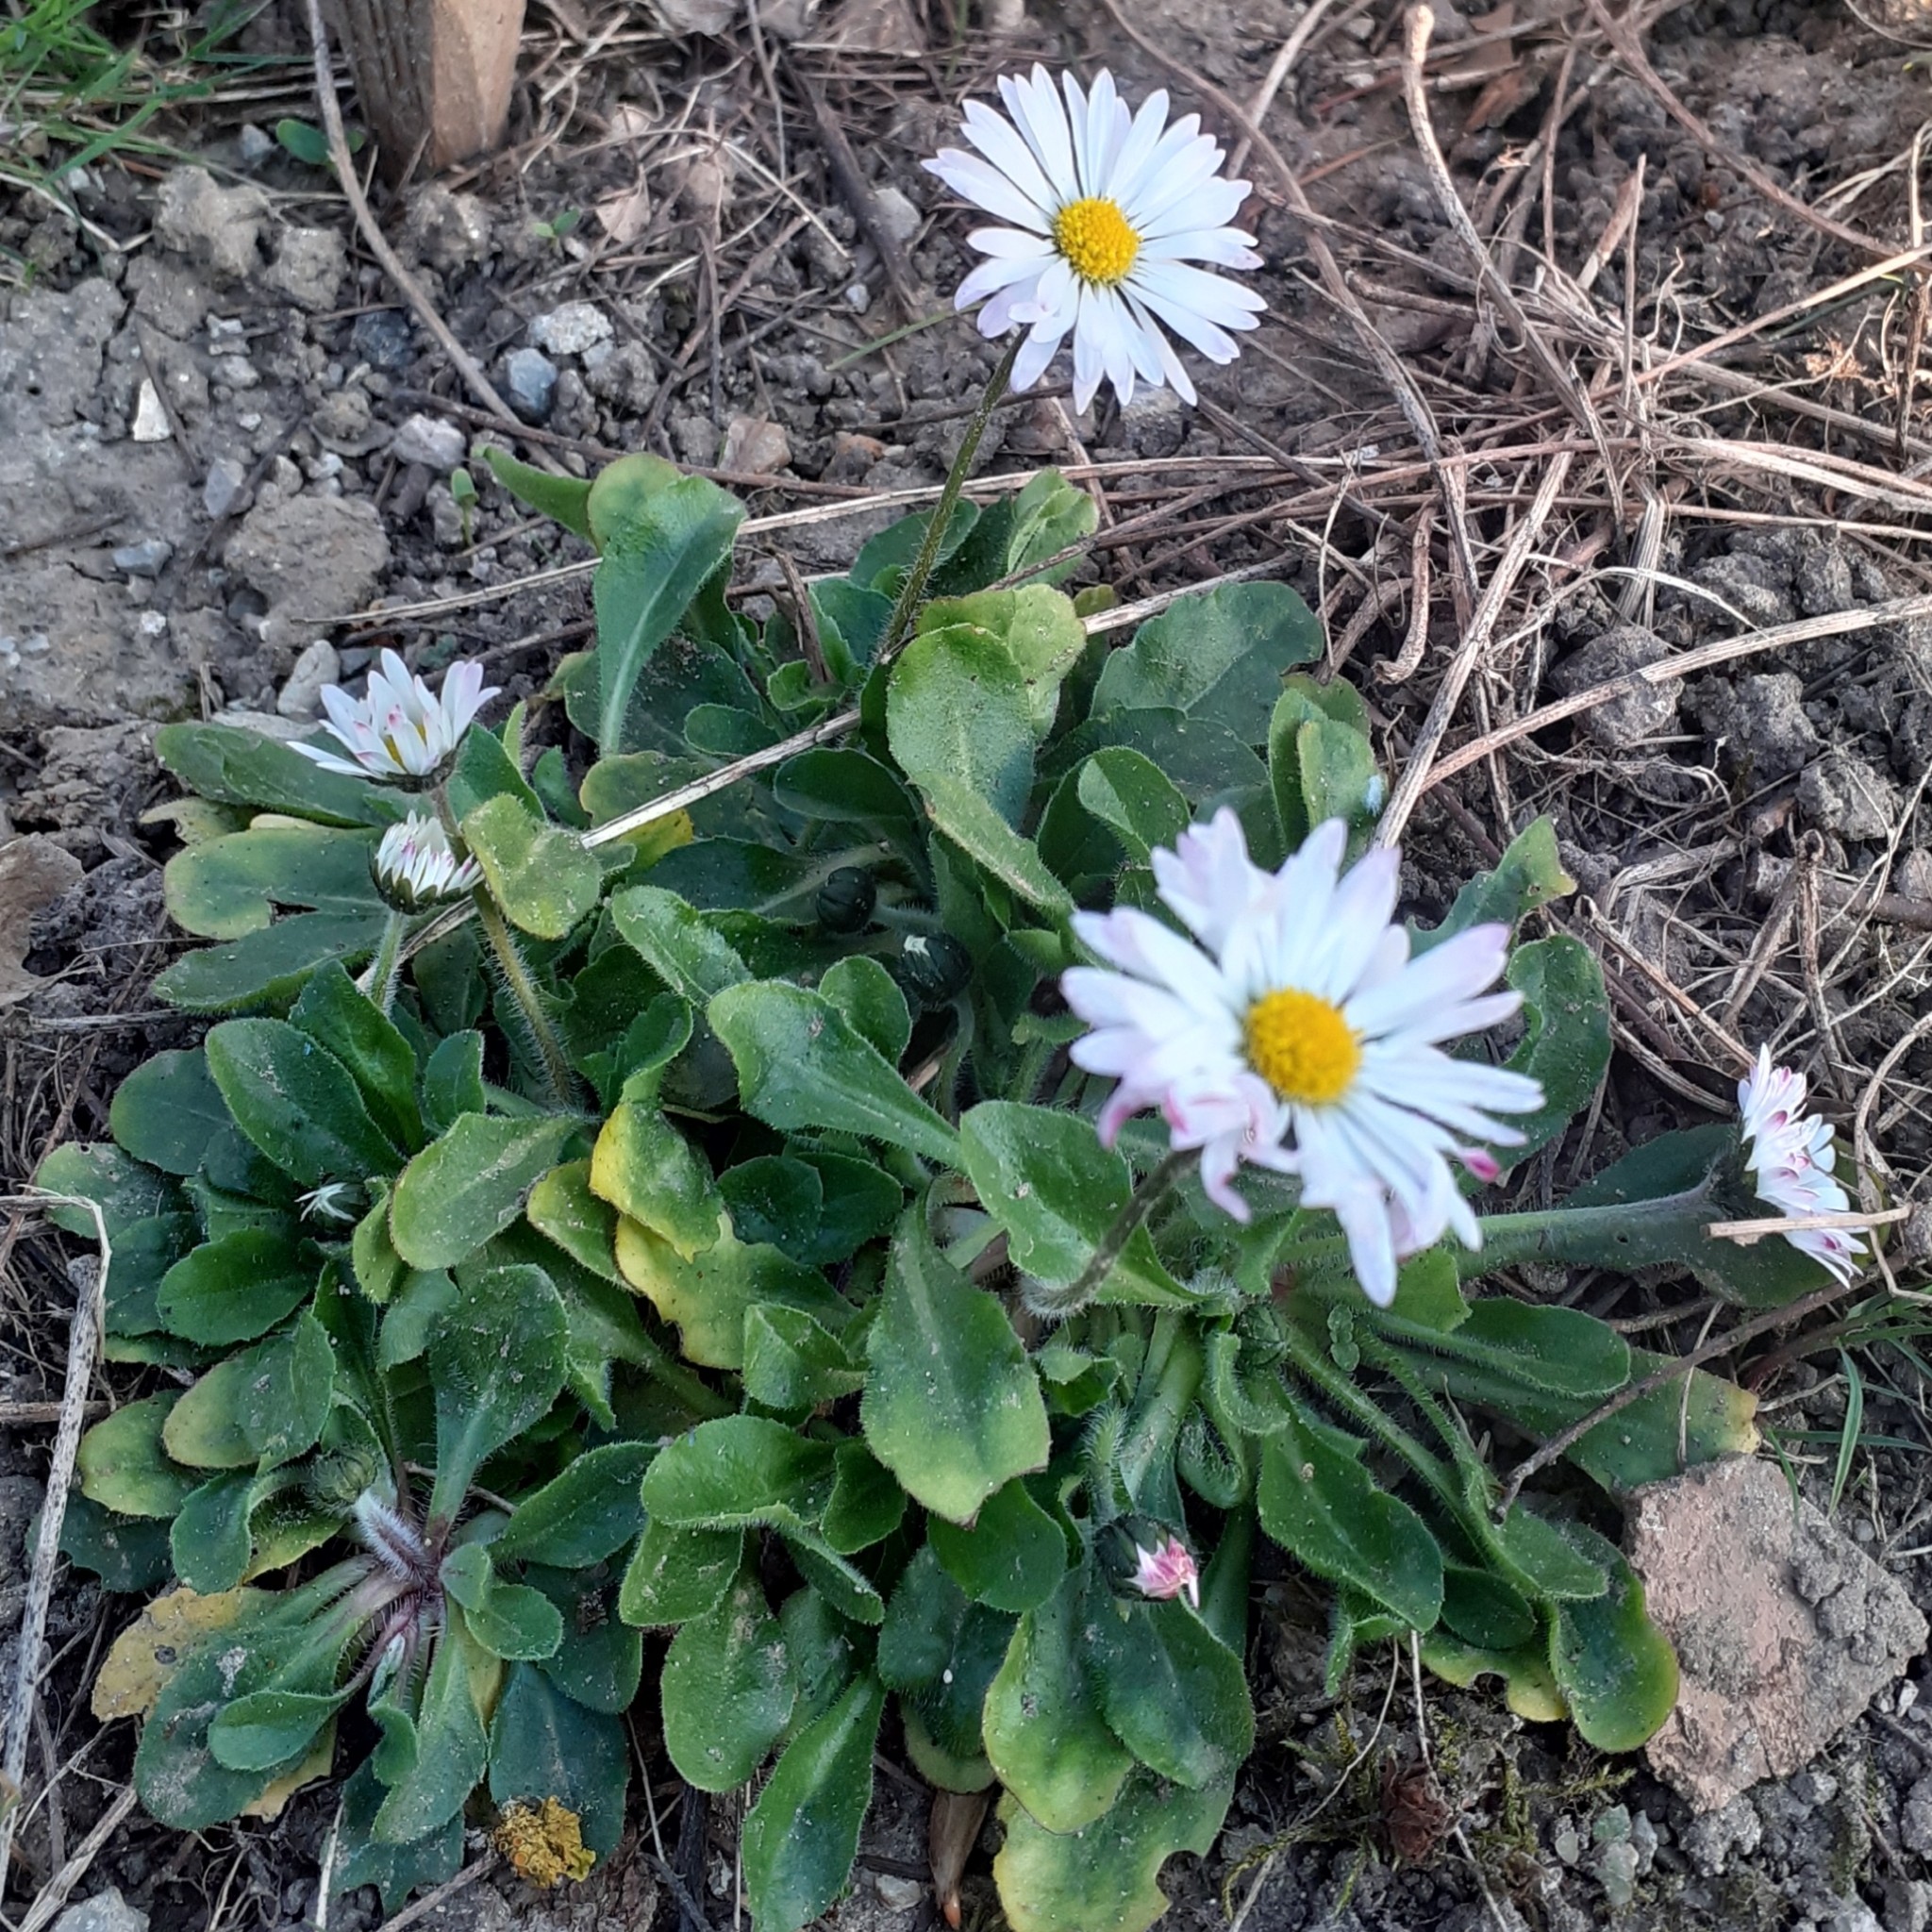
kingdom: Plantae
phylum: Tracheophyta
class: Magnoliopsida
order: Asterales
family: Asteraceae
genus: Bellis
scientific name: Bellis perennis
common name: Lawndaisy
